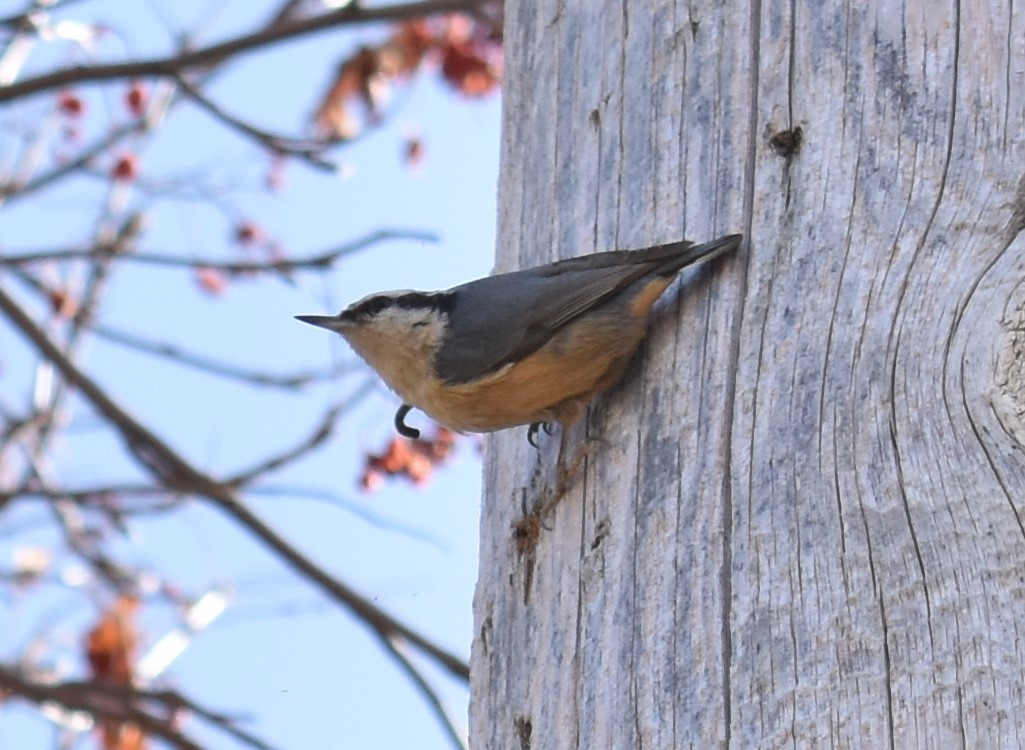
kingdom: Animalia
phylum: Chordata
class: Aves
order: Passeriformes
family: Sittidae
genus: Sitta
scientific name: Sitta canadensis
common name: Red-breasted nuthatch
